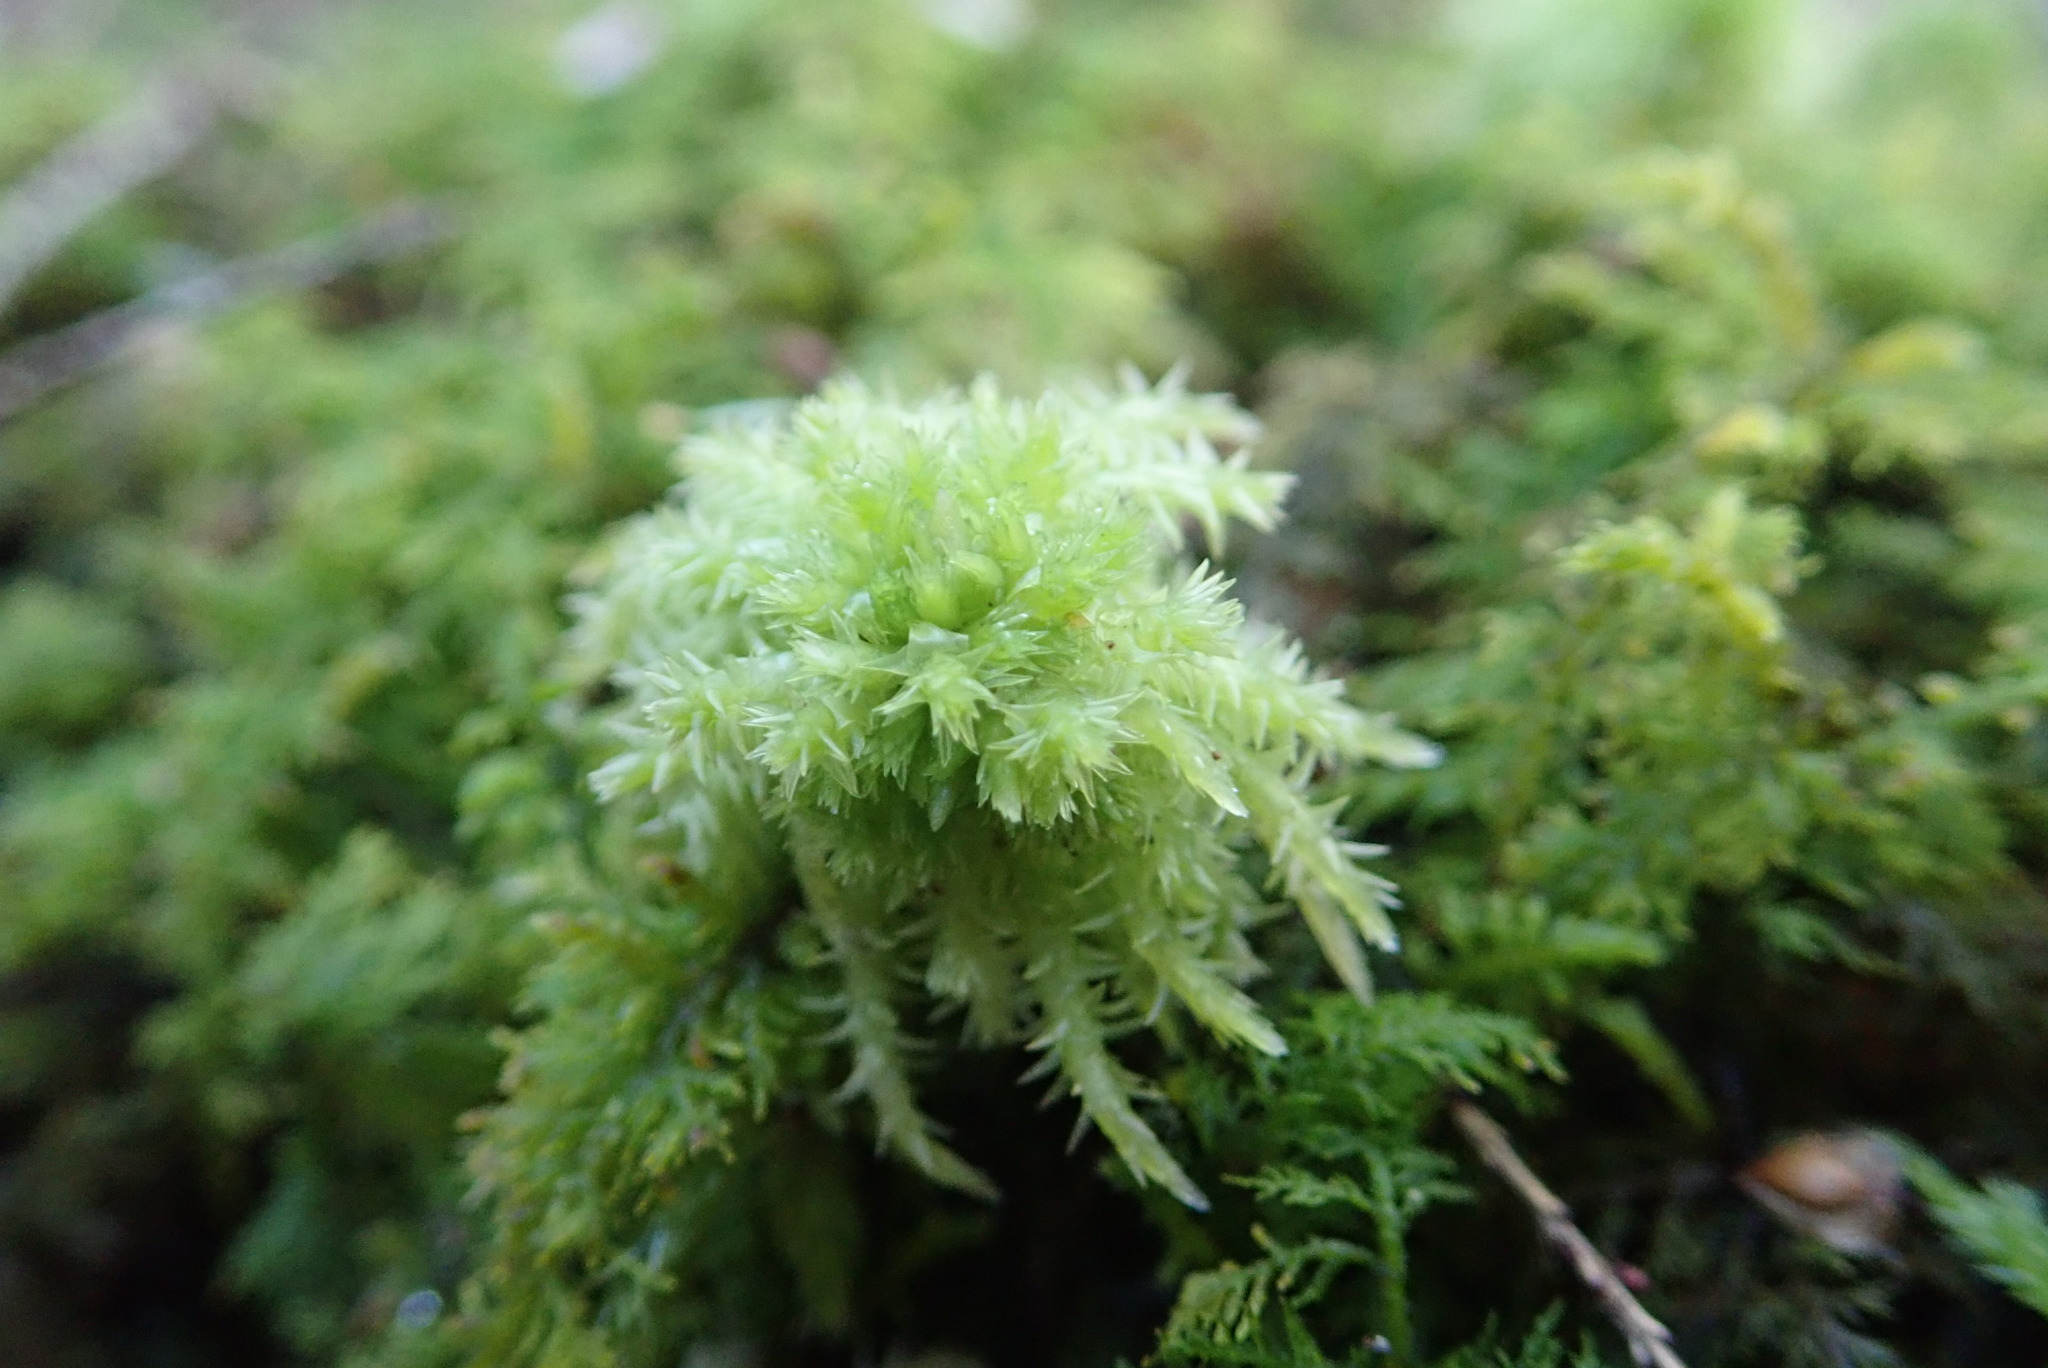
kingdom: Plantae
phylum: Bryophyta
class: Sphagnopsida
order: Sphagnales
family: Sphagnaceae
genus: Sphagnum
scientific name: Sphagnum squarrosum
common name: Shaggy peat moss
